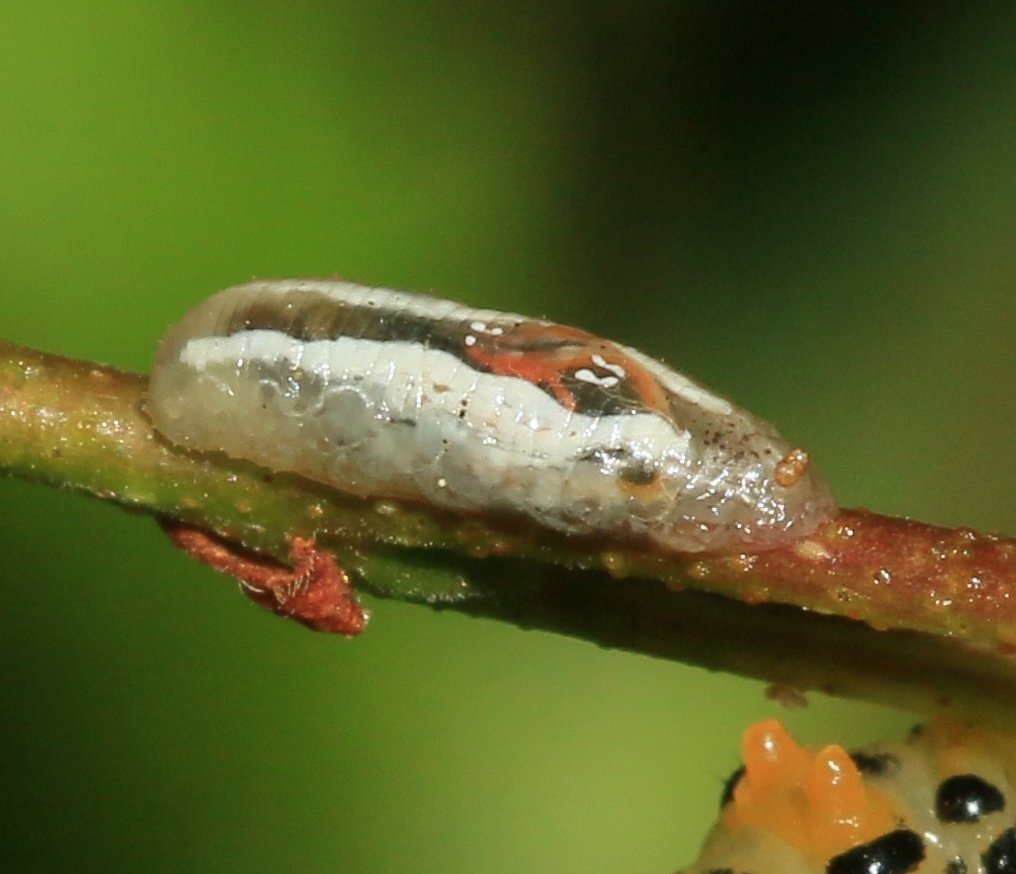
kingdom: Animalia
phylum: Arthropoda
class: Insecta
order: Diptera
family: Syrphidae
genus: Meliscaeva
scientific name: Meliscaeva auricollis
